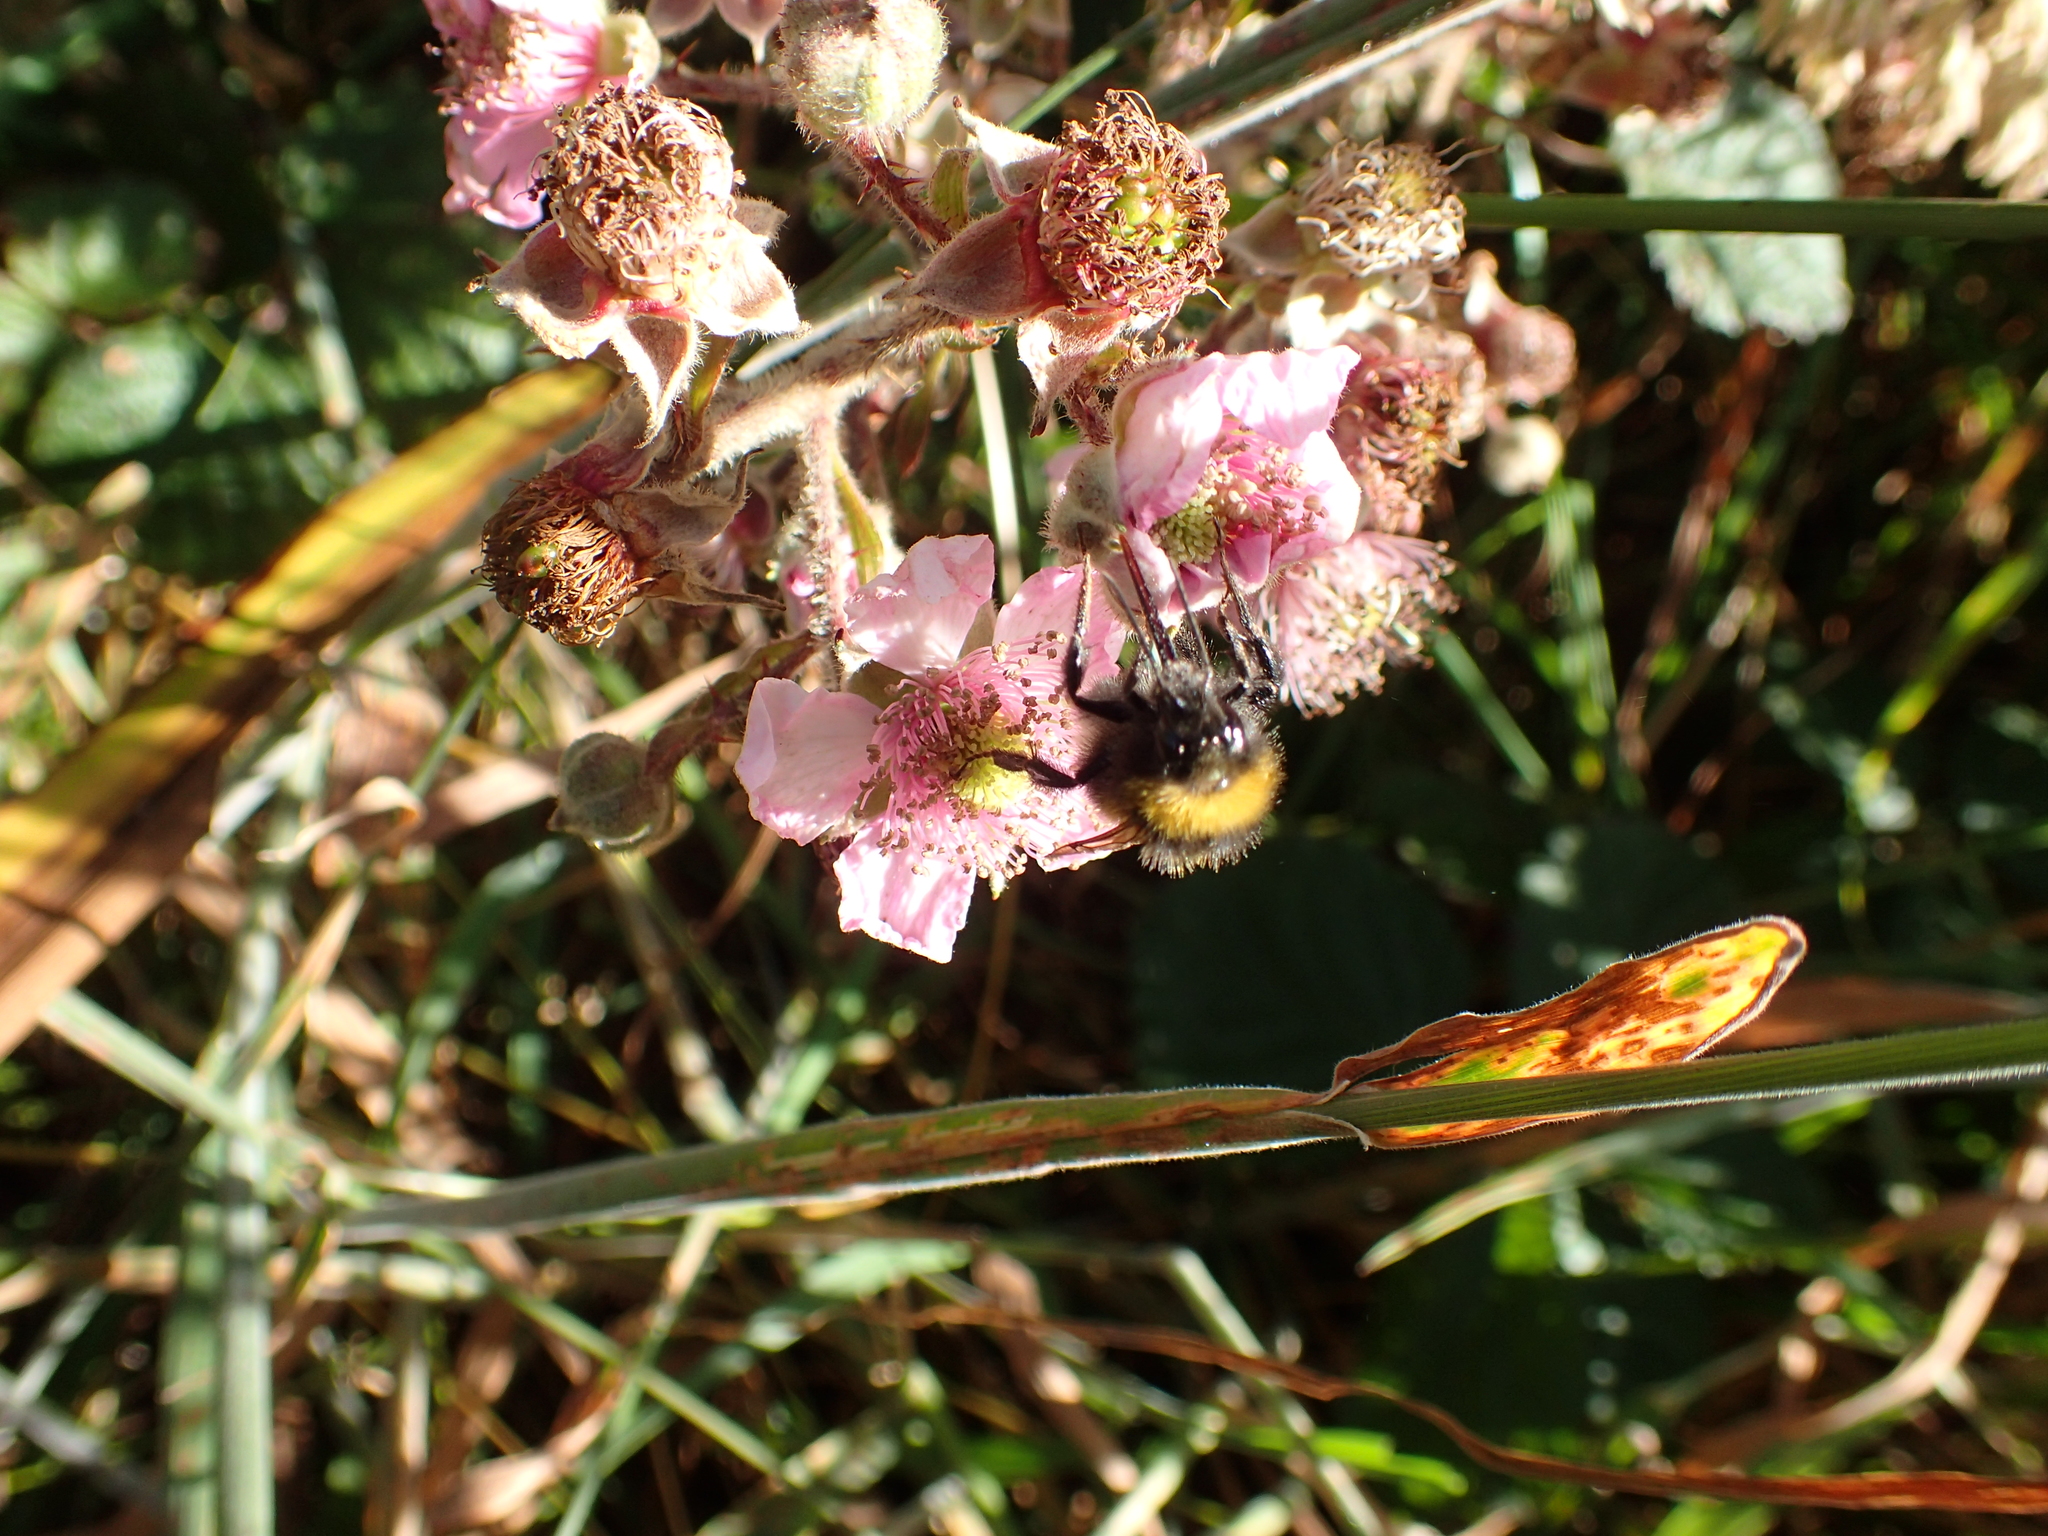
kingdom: Animalia
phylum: Arthropoda
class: Insecta
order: Hymenoptera
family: Apidae
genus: Megabombus
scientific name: Megabombus
